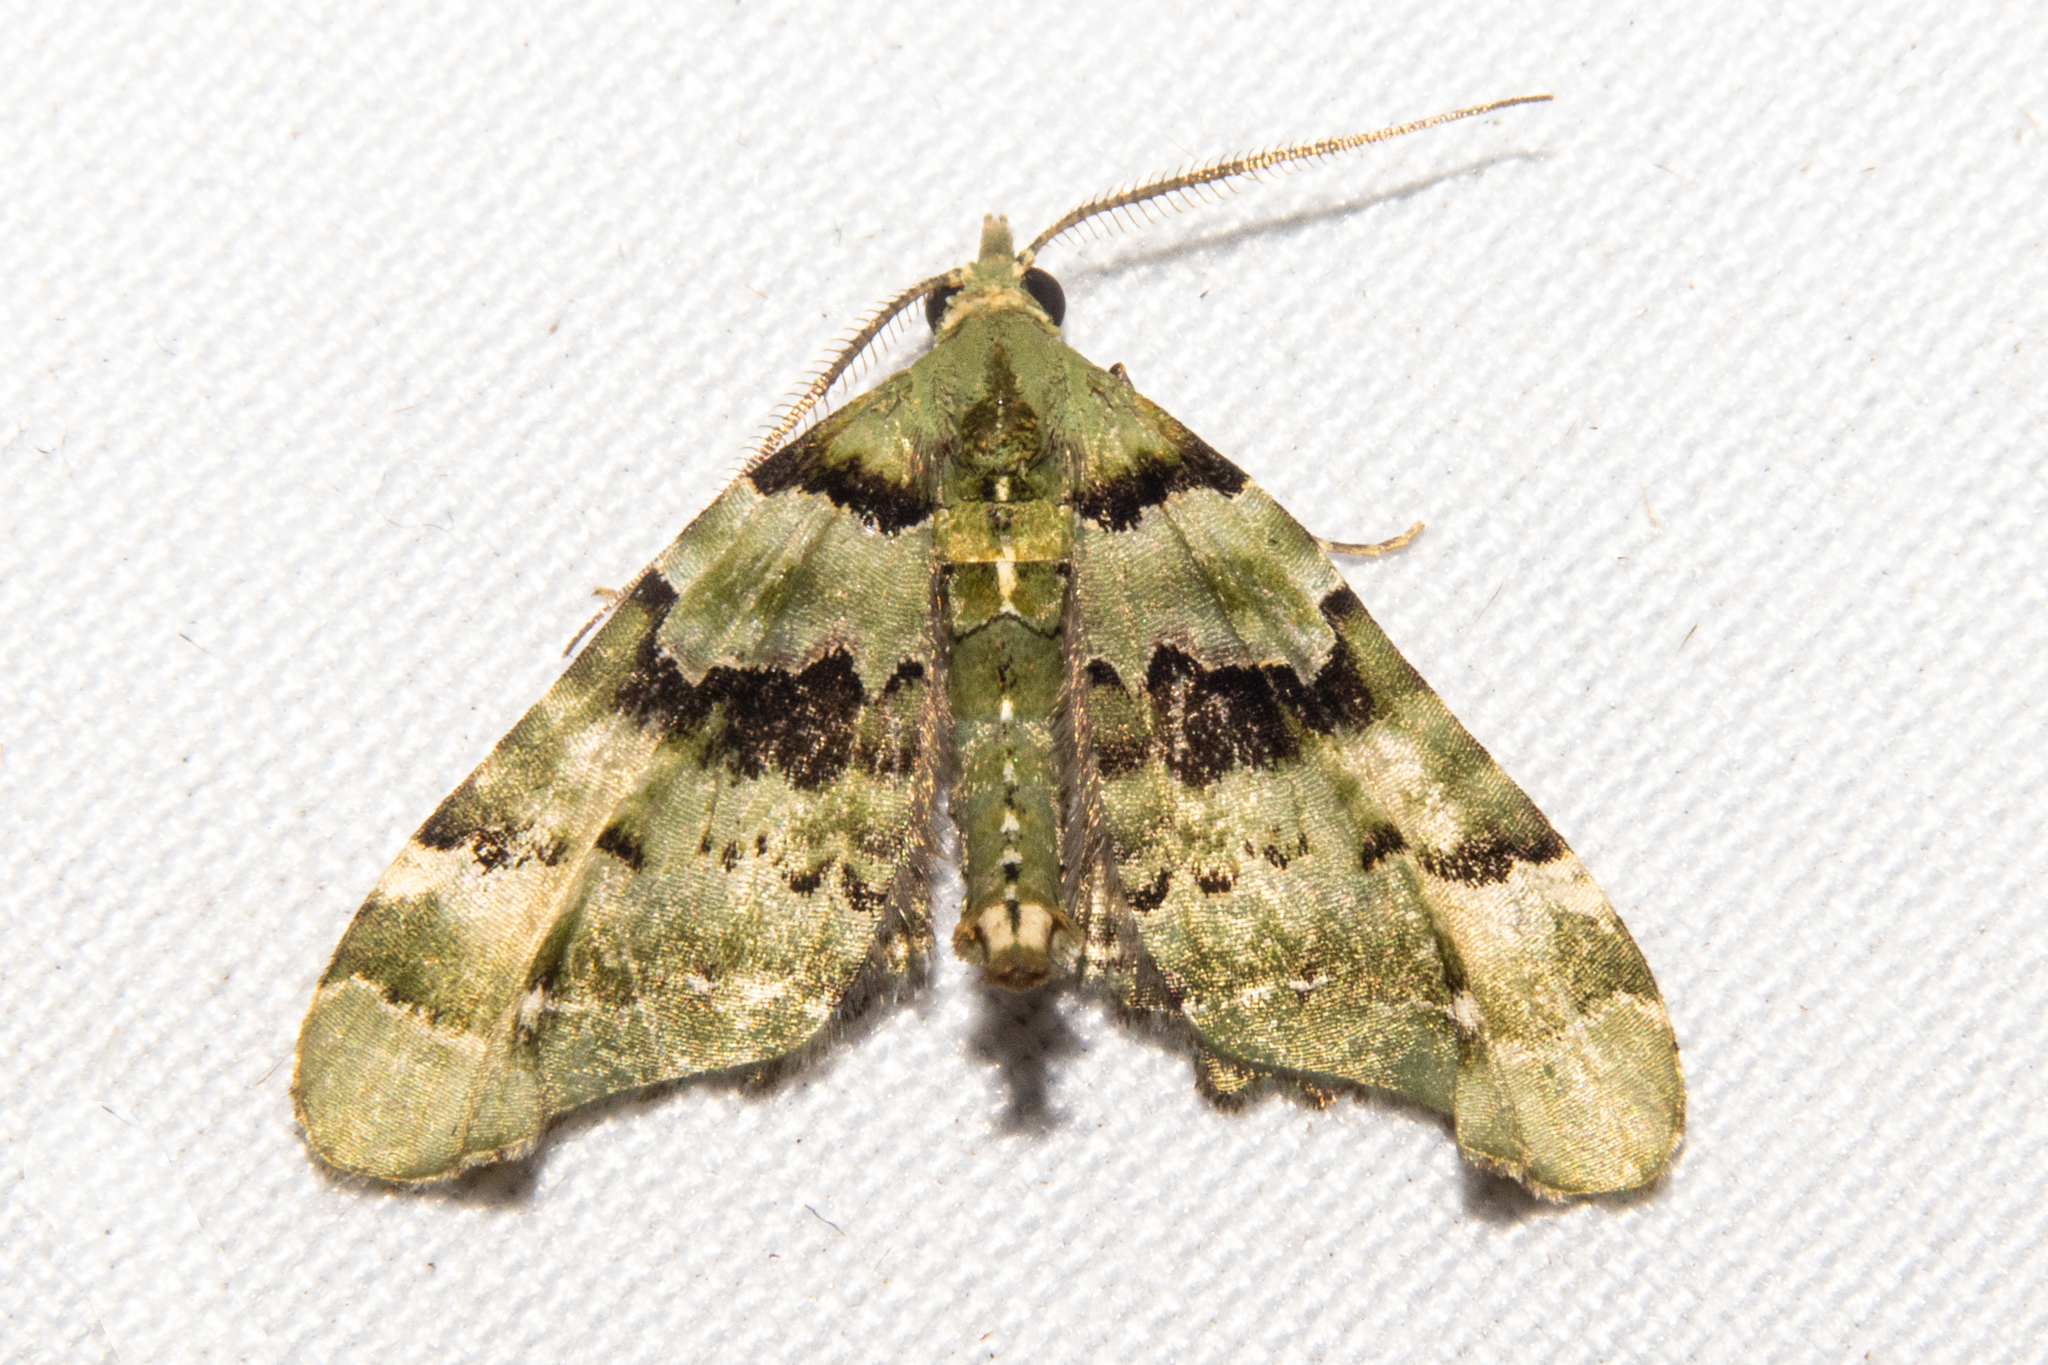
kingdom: Animalia
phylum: Arthropoda
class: Insecta
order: Lepidoptera
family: Geometridae
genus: Elvia
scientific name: Elvia glaucata
